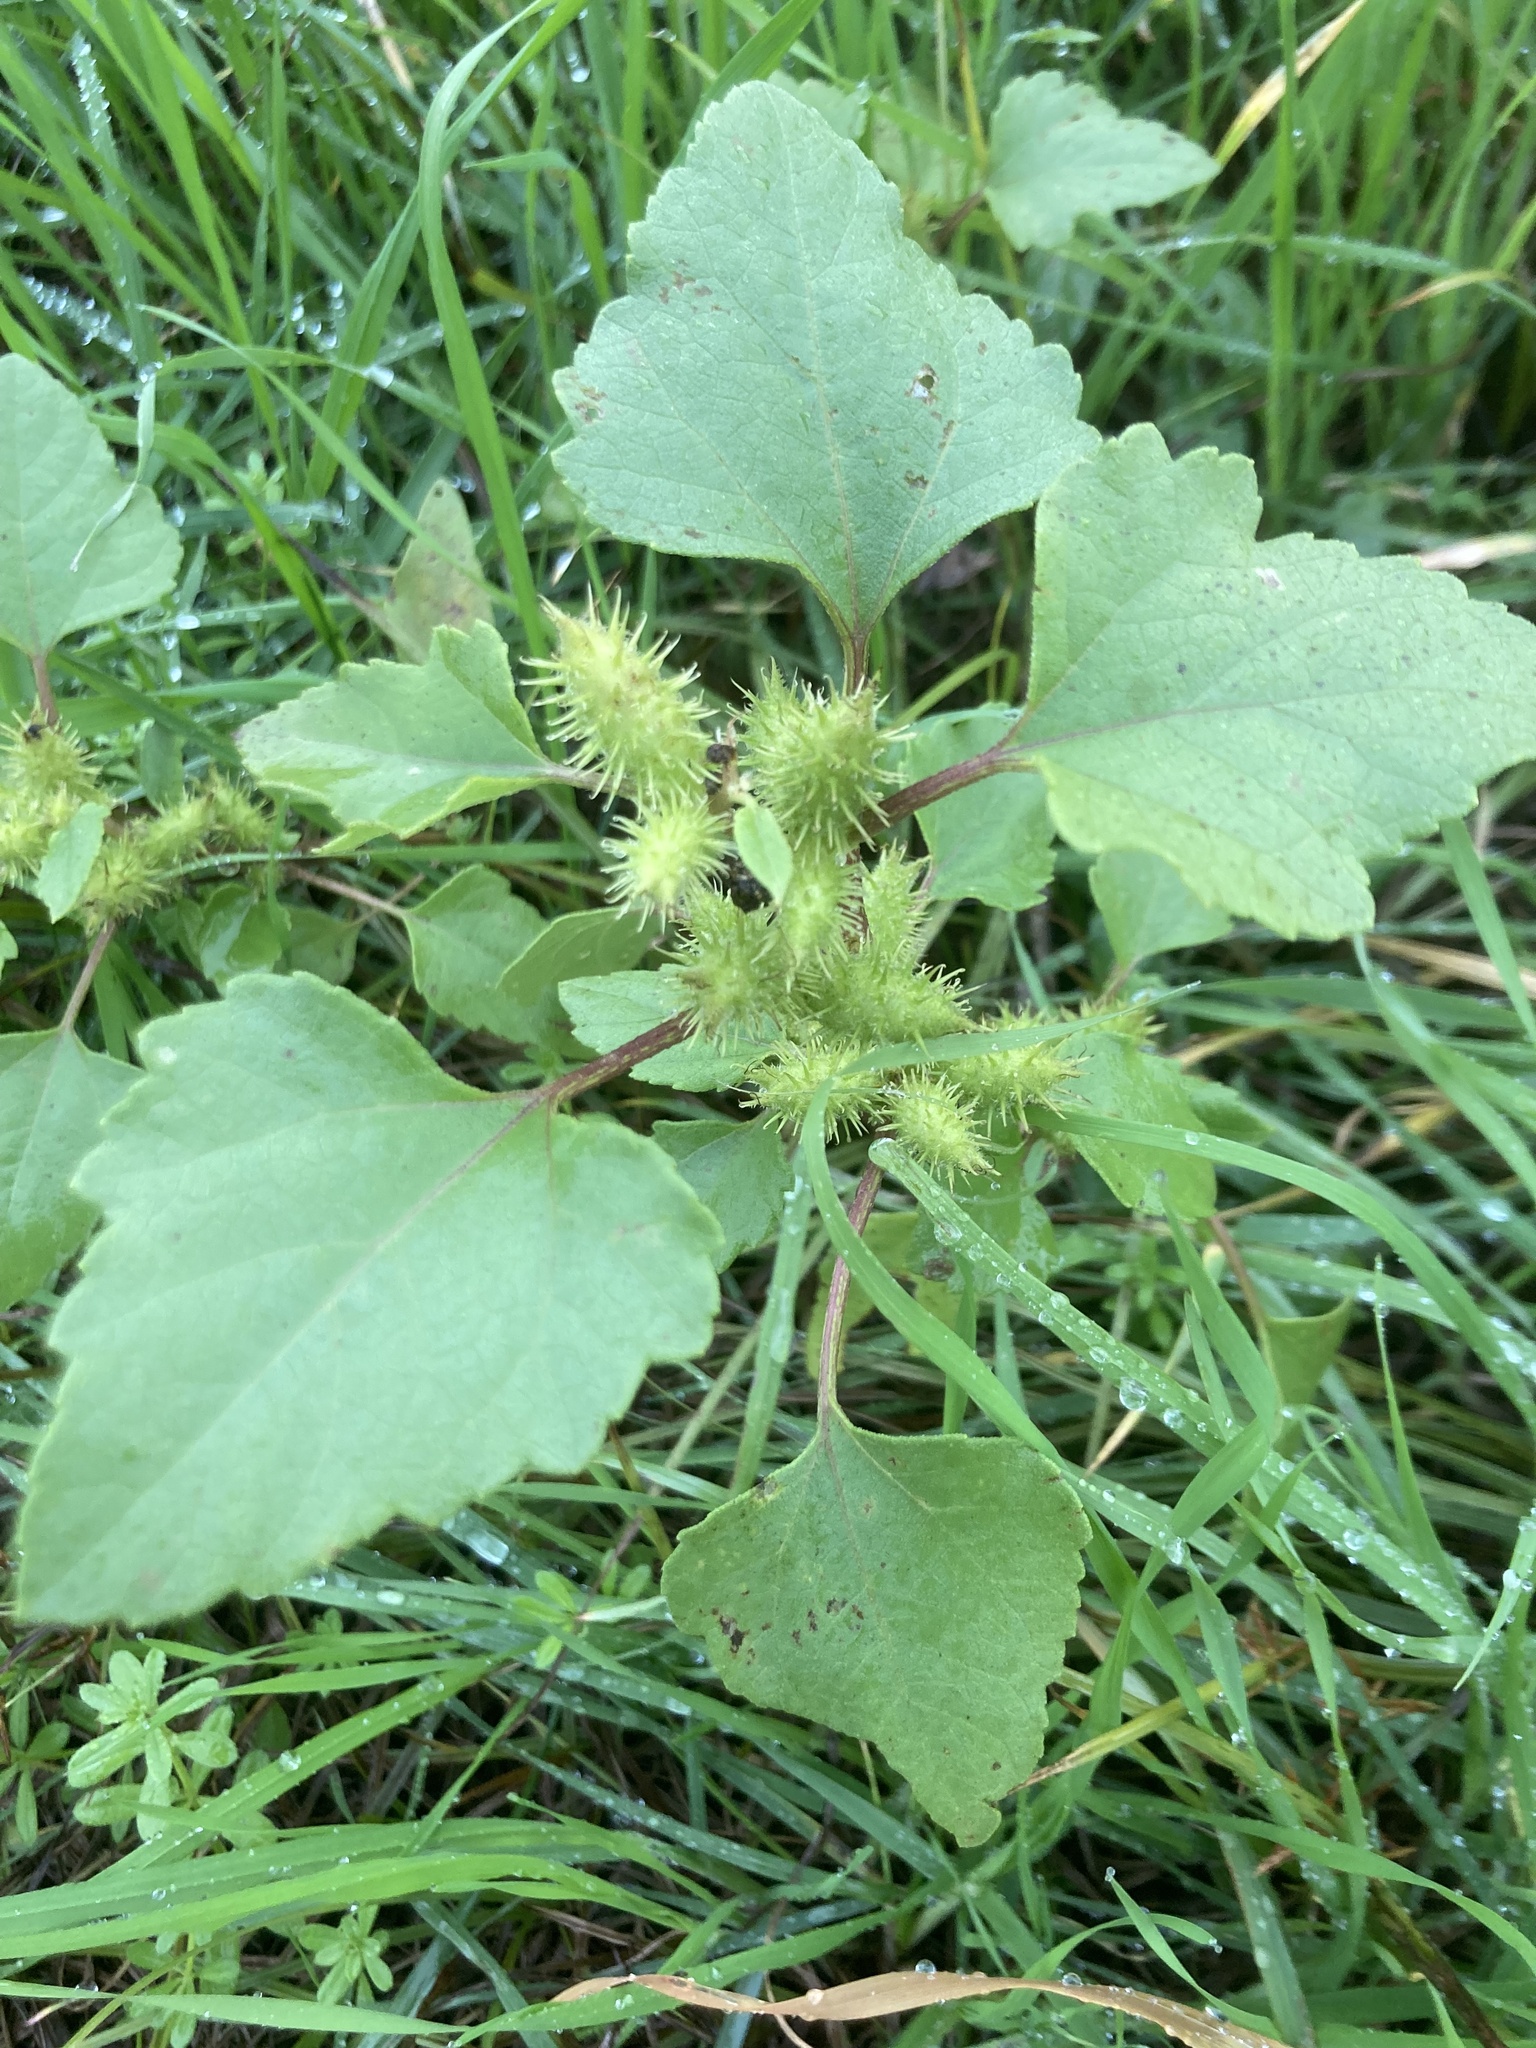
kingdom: Plantae
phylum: Tracheophyta
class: Magnoliopsida
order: Asterales
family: Asteraceae
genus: Xanthium
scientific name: Xanthium strumarium
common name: Rough cocklebur
